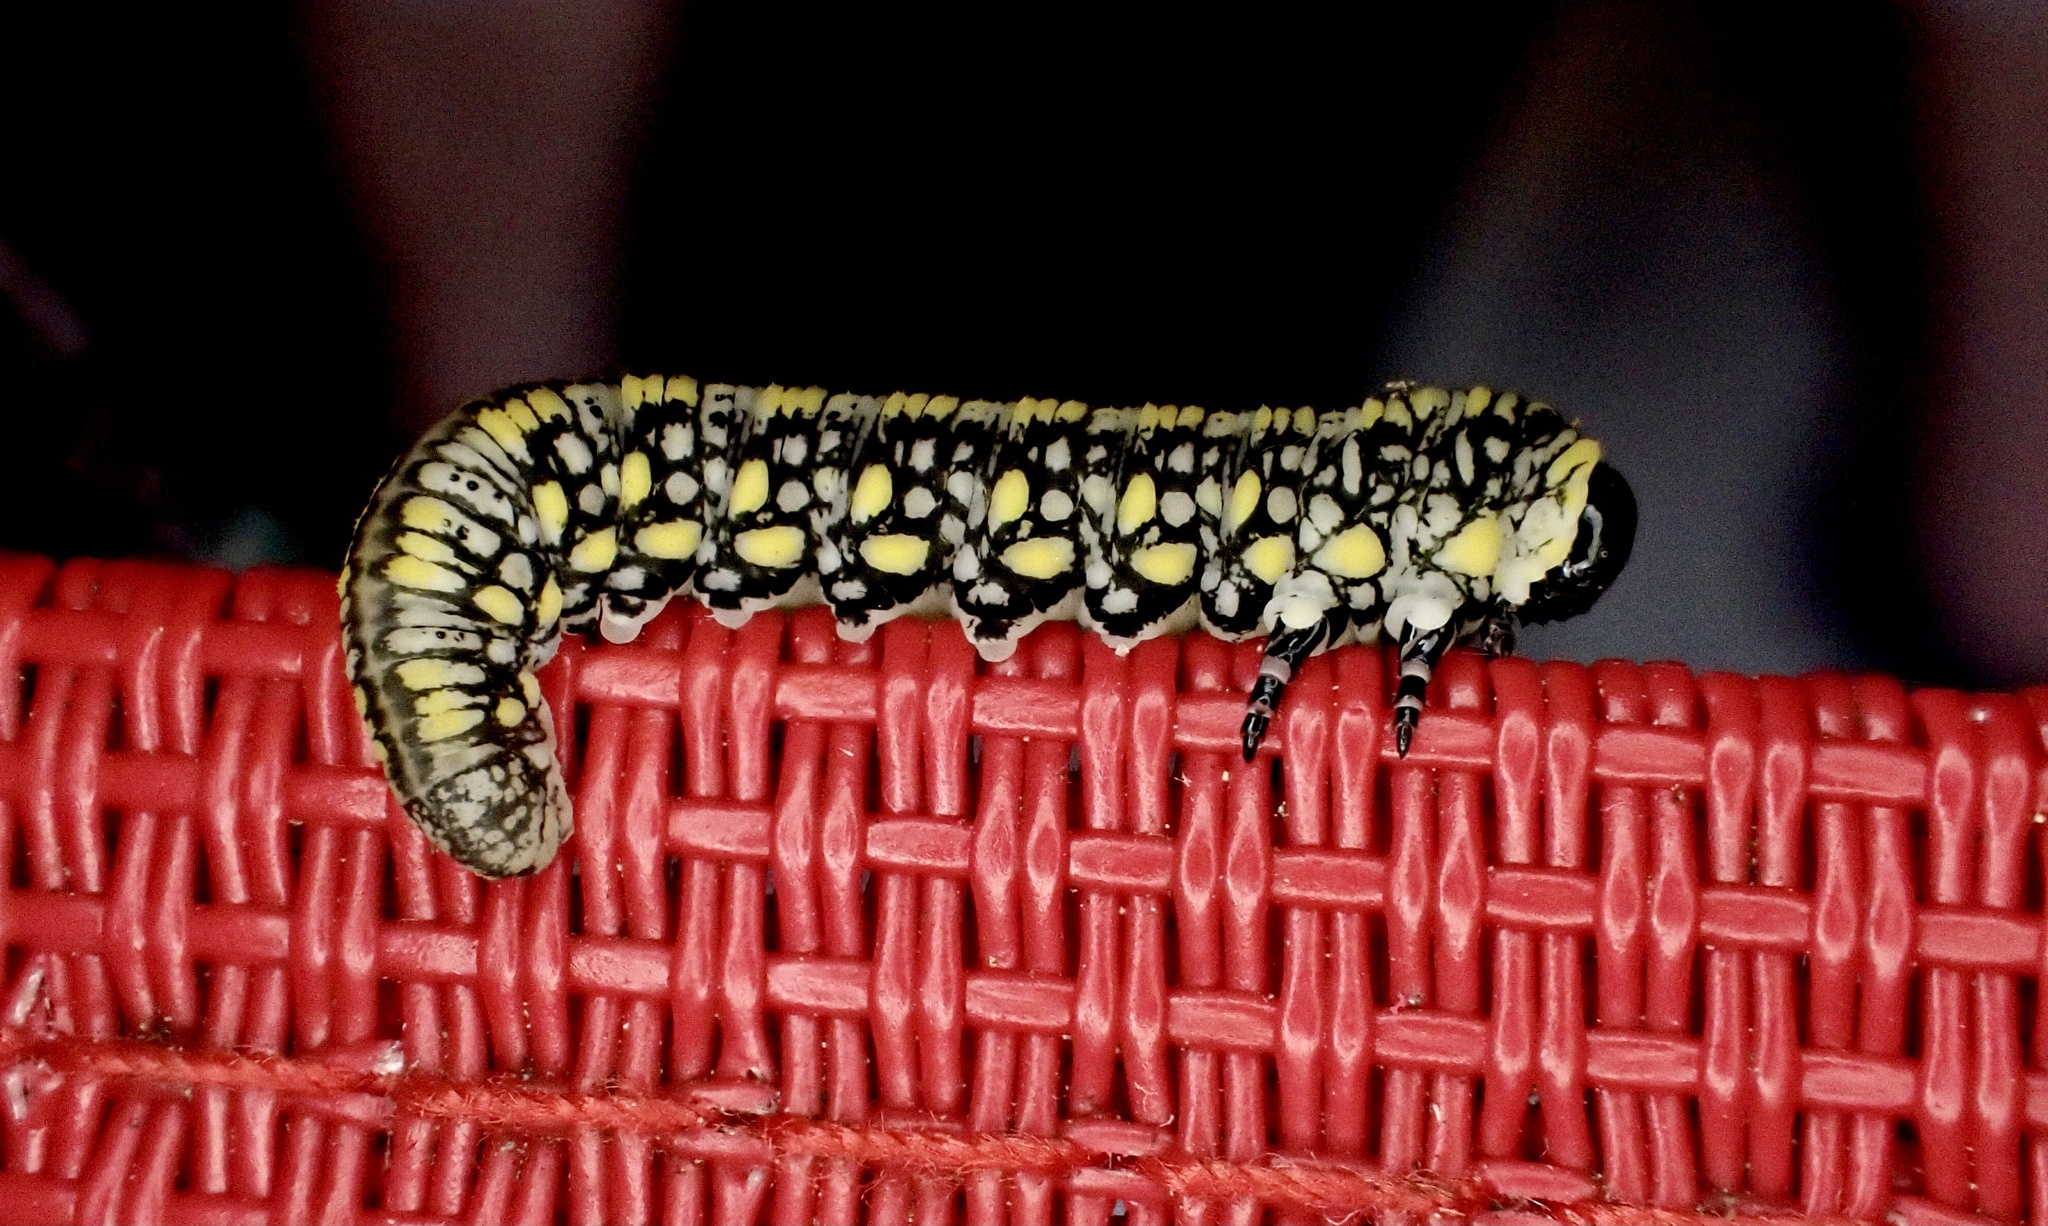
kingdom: Animalia
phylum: Arthropoda
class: Insecta
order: Hymenoptera
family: Diprionidae
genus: Diprion
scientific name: Diprion similis
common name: Pine sawfly
